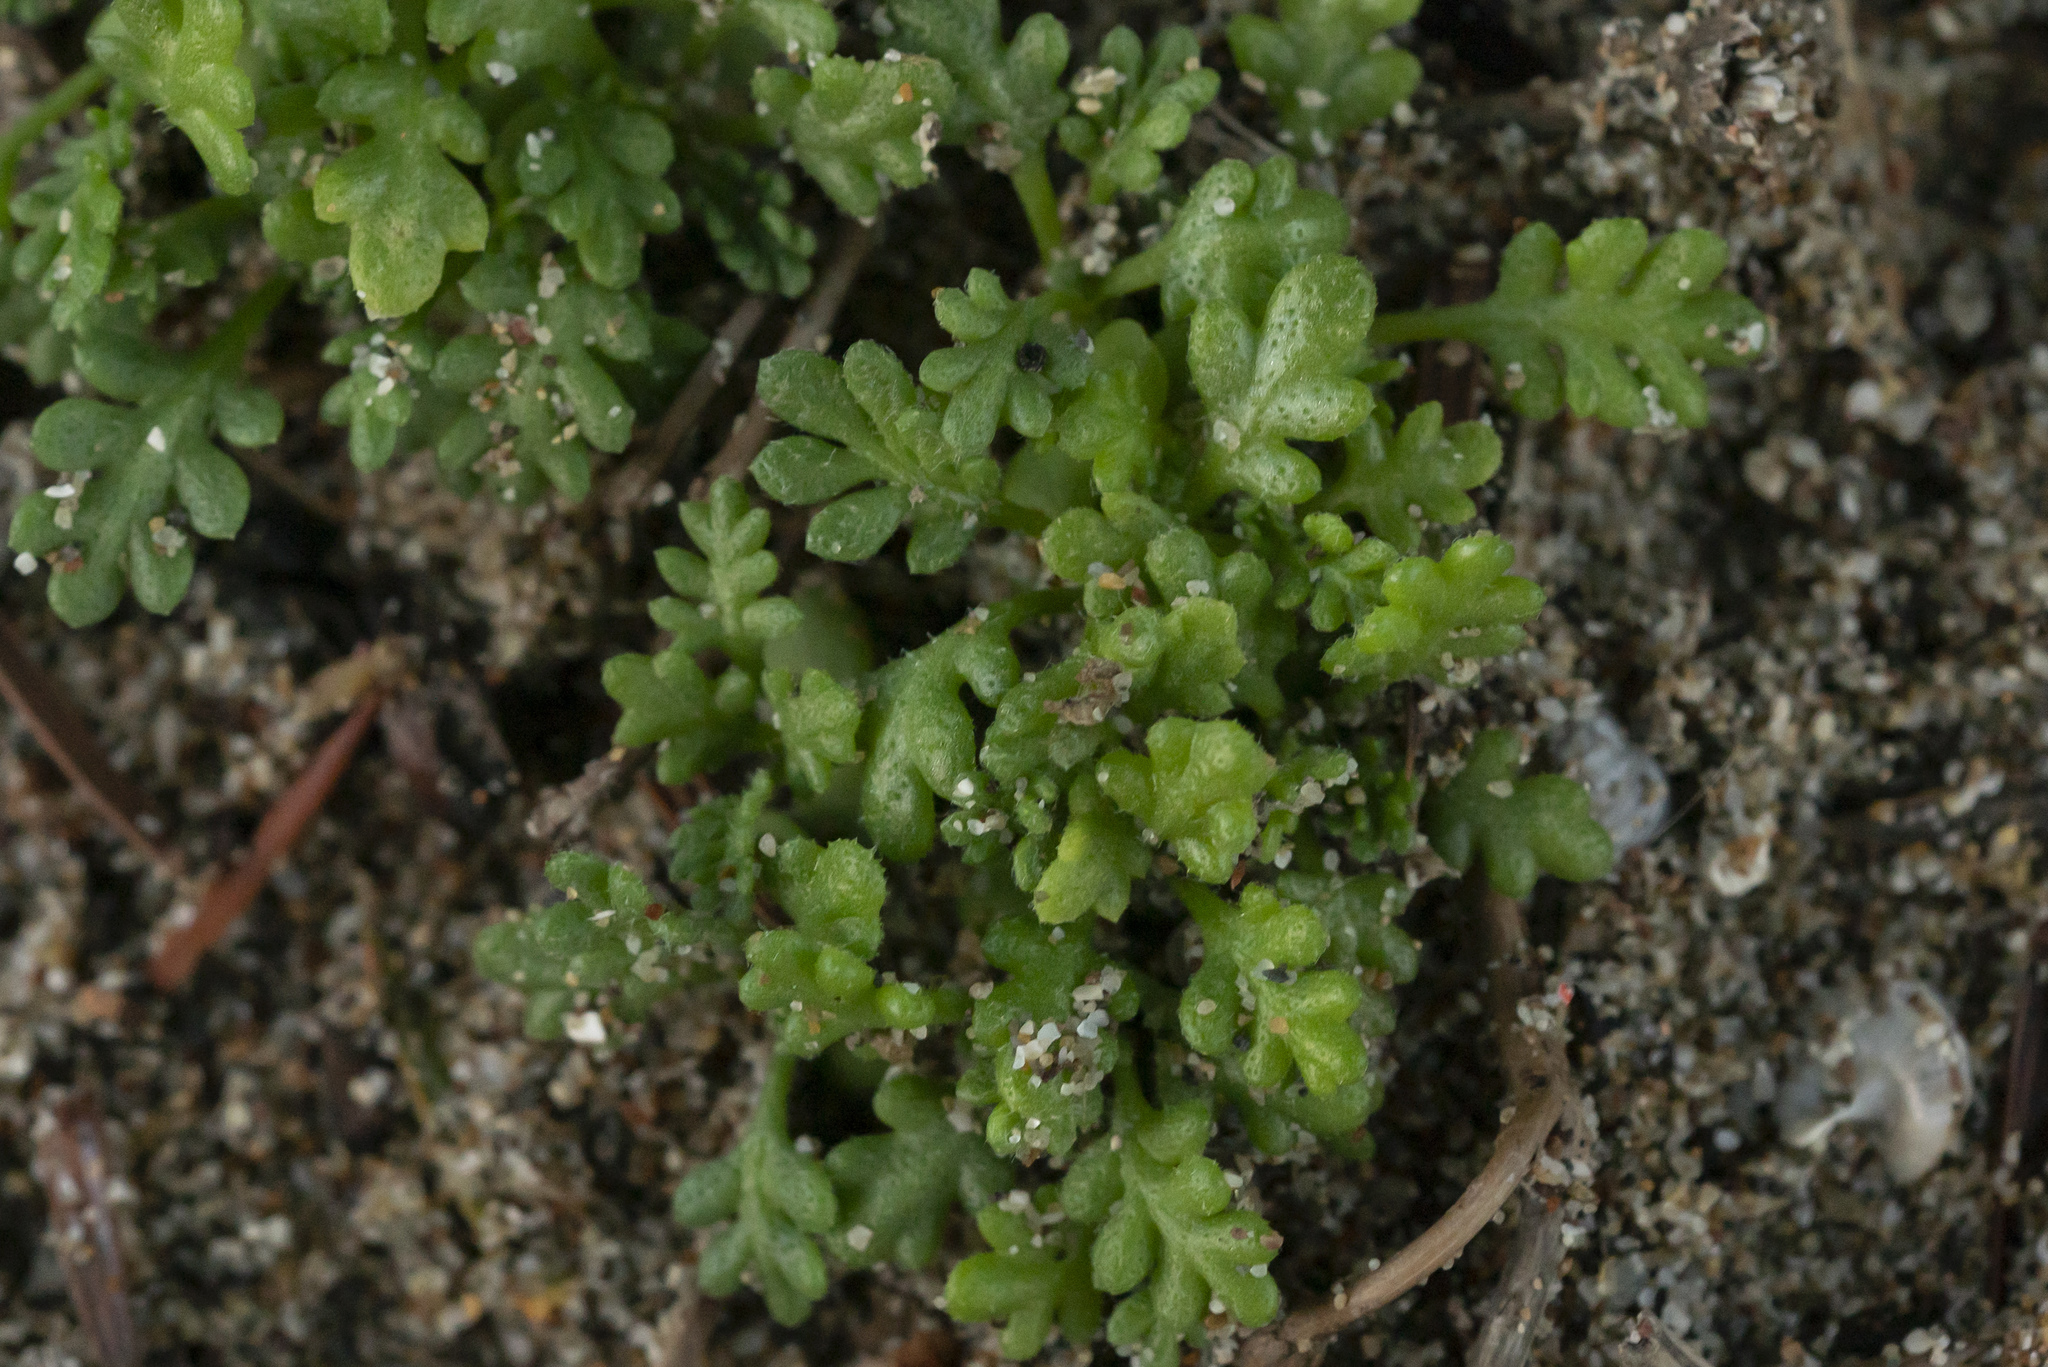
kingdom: Plantae
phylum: Tracheophyta
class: Magnoliopsida
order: Asterales
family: Asteraceae
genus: Anthemis
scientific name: Anthemis rigida
